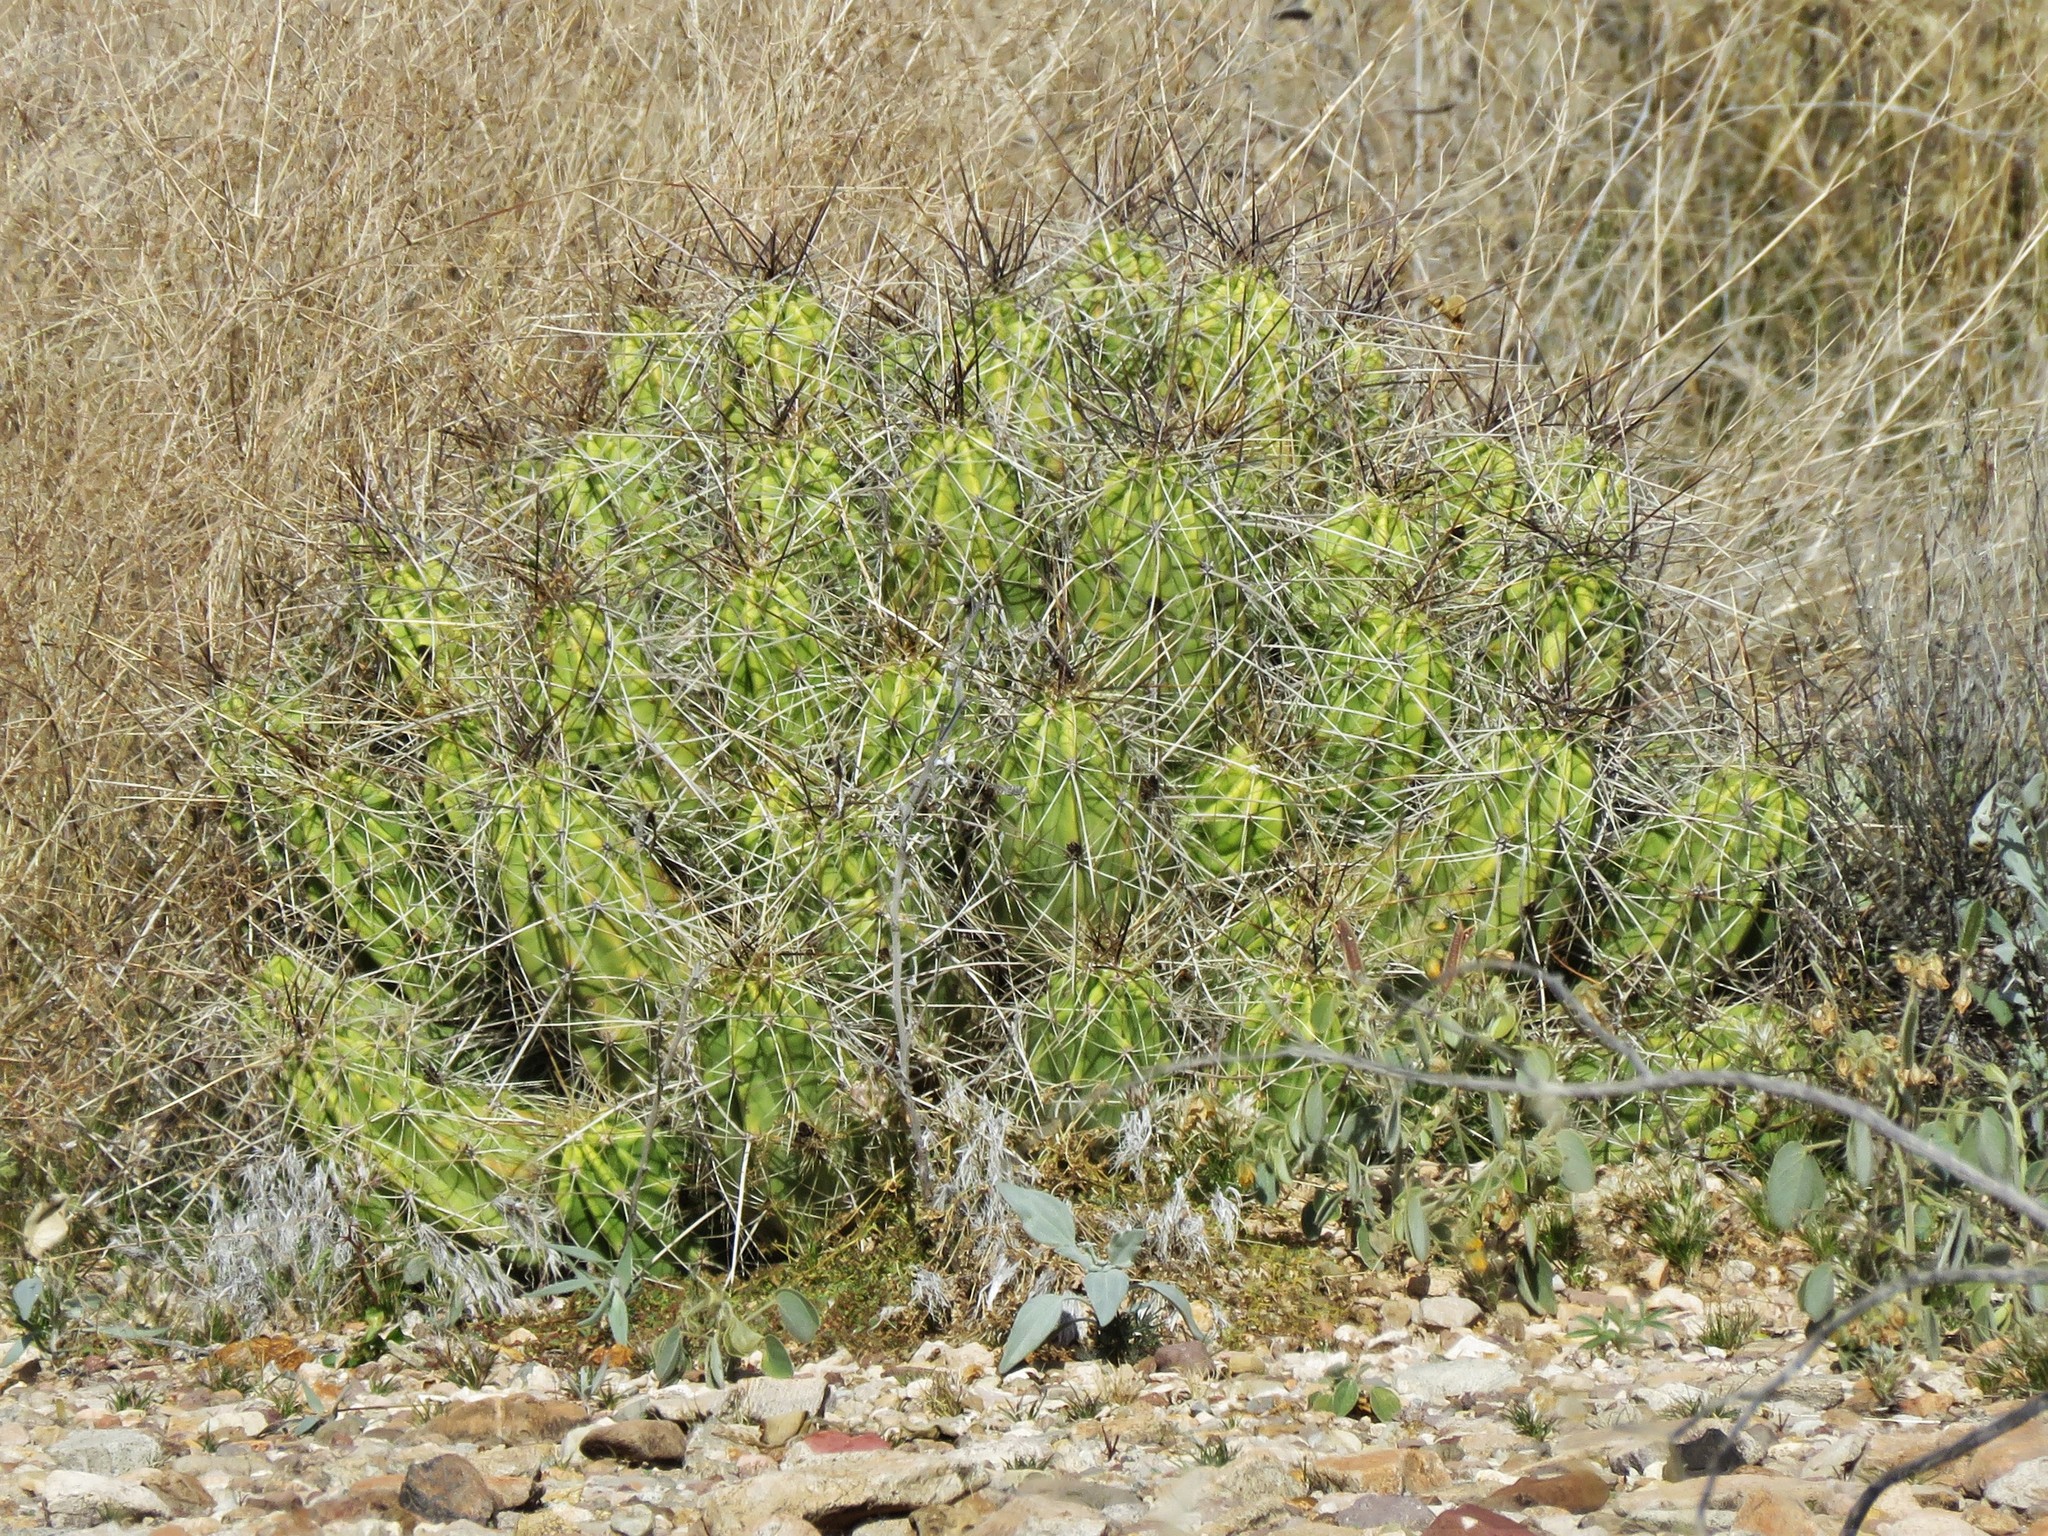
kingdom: Plantae
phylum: Tracheophyta
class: Magnoliopsida
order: Caryophyllales
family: Cactaceae
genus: Echinocereus
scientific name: Echinocereus enneacanthus
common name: Pitaya
